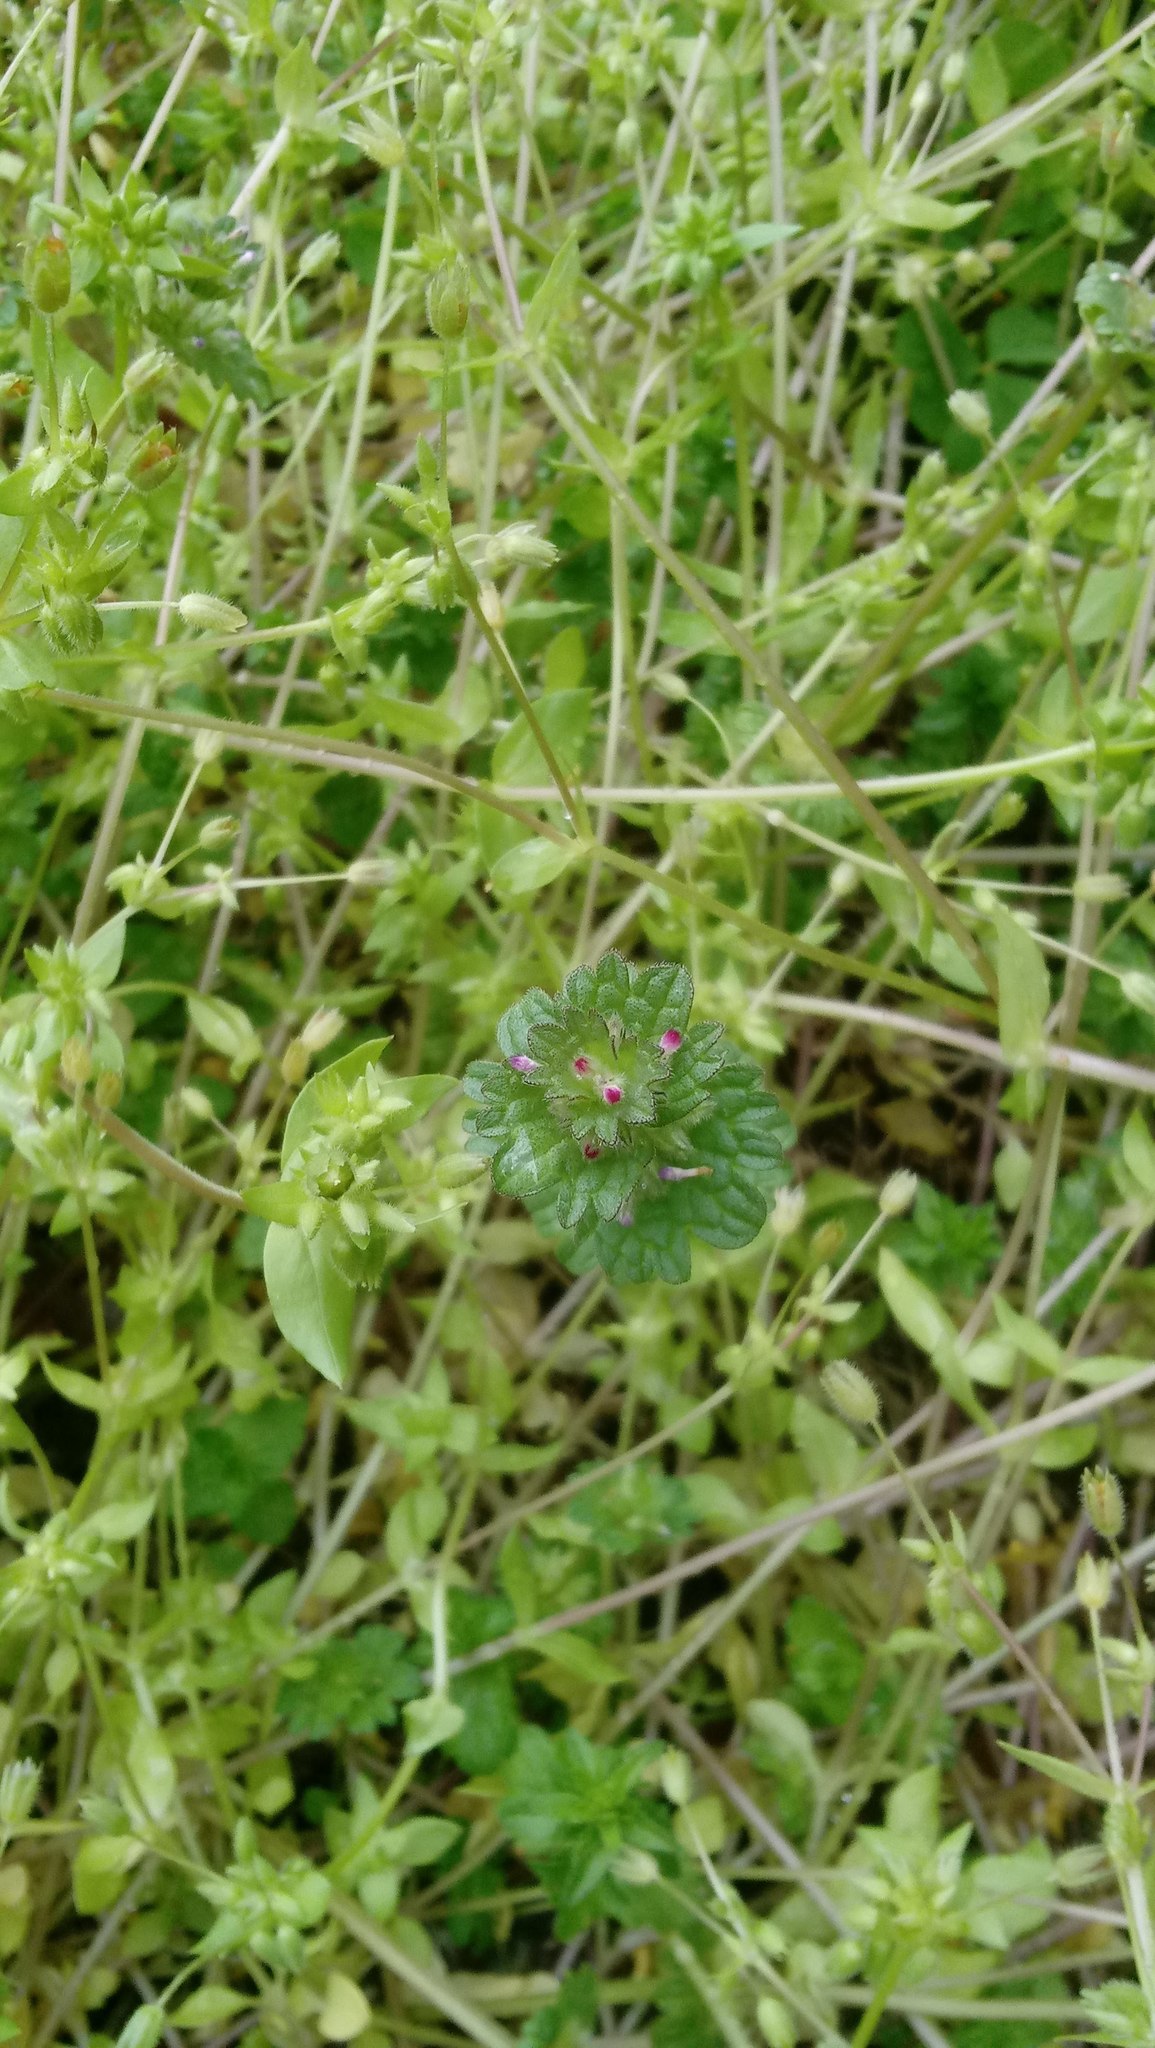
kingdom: Plantae
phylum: Tracheophyta
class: Magnoliopsida
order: Lamiales
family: Lamiaceae
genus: Lamium
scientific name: Lamium amplexicaule
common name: Henbit dead-nettle
